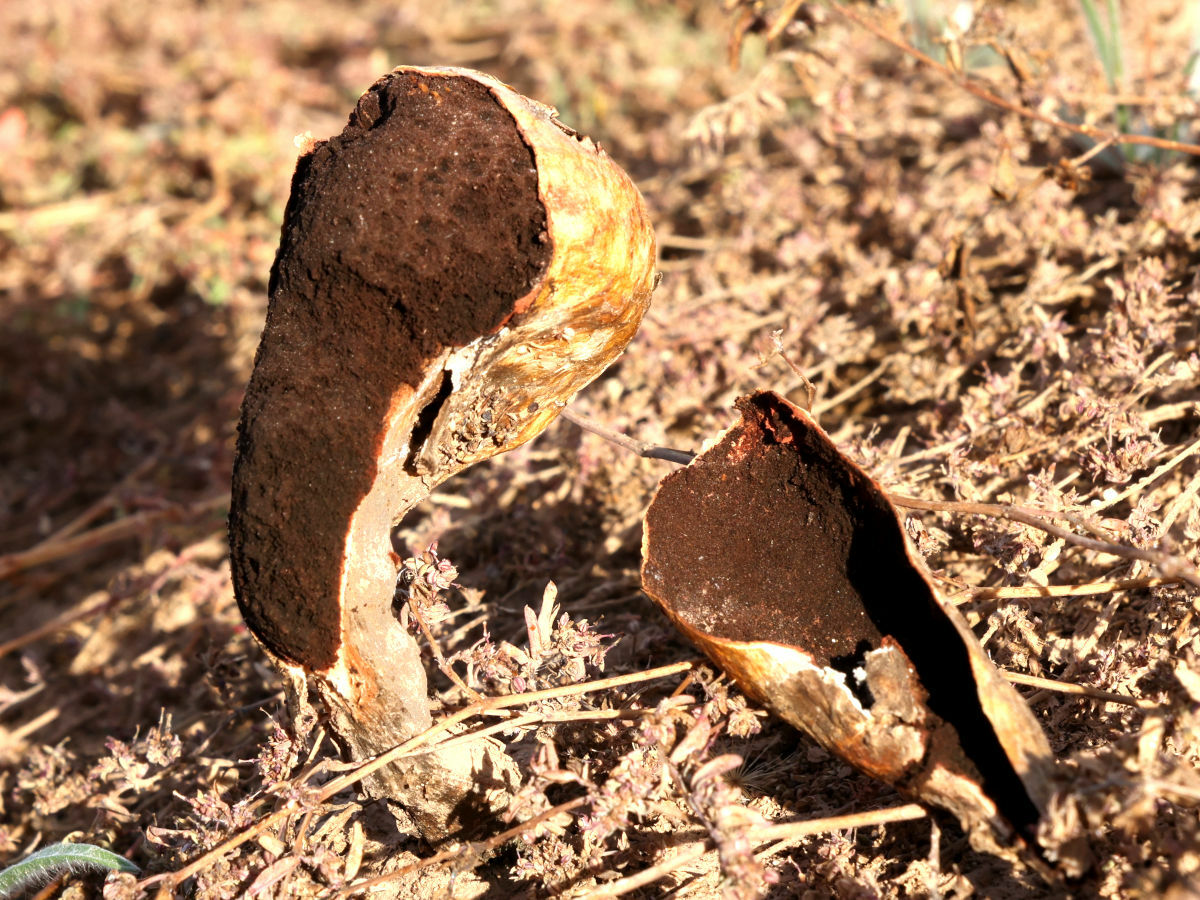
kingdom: Fungi
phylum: Basidiomycota
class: Agaricomycetes
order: Agaricales
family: Agaricaceae
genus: Podaxis
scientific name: Podaxis pistillaris
